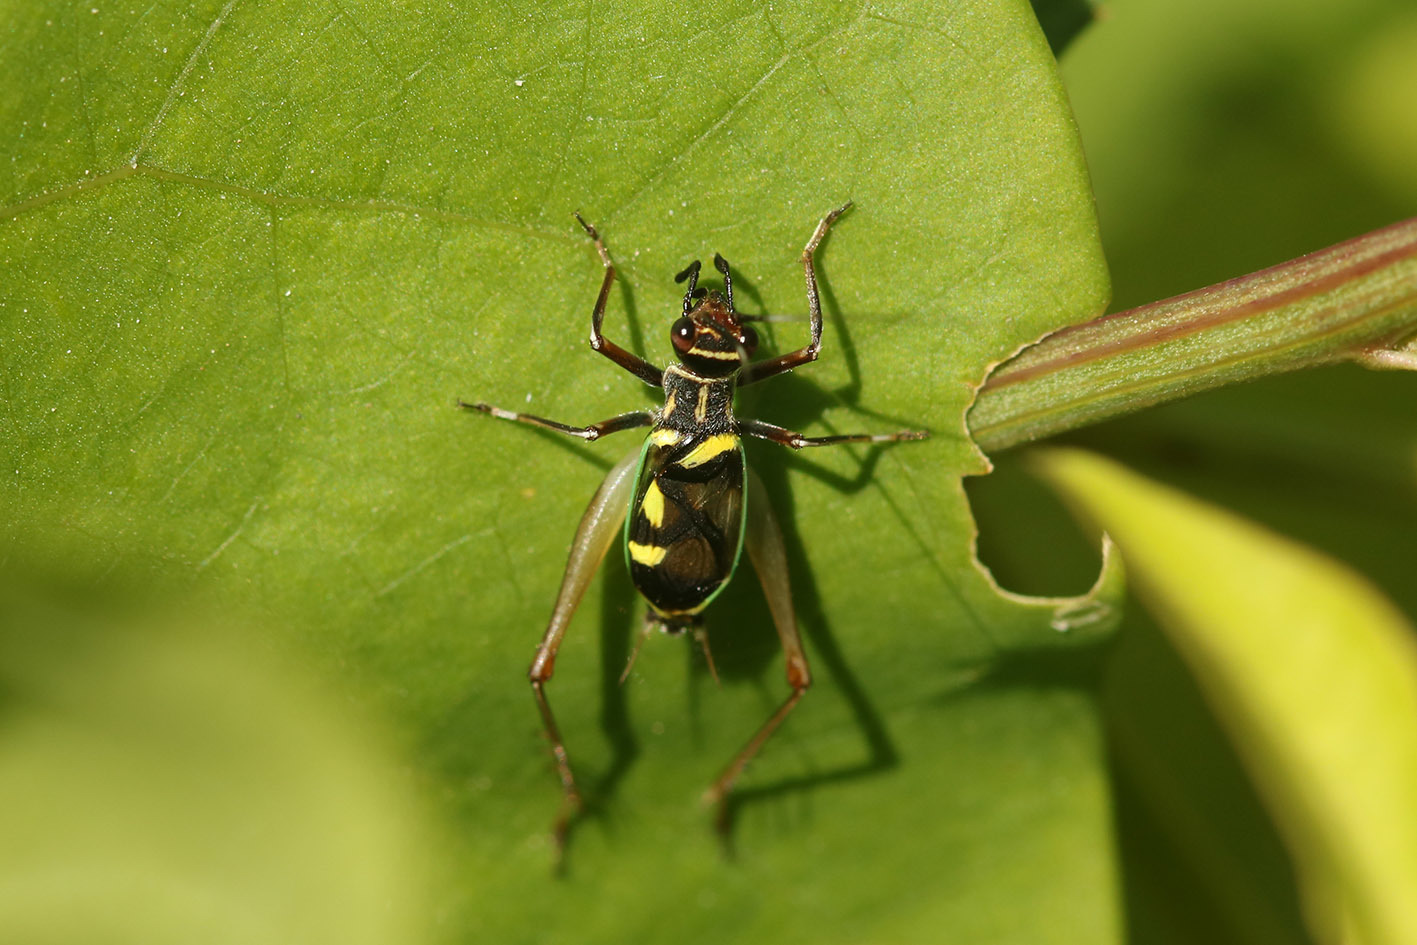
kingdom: Animalia
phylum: Arthropoda
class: Insecta
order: Orthoptera
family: Trigonidiidae
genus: Phylloscyrtus
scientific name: Phylloscyrtus amoenus
